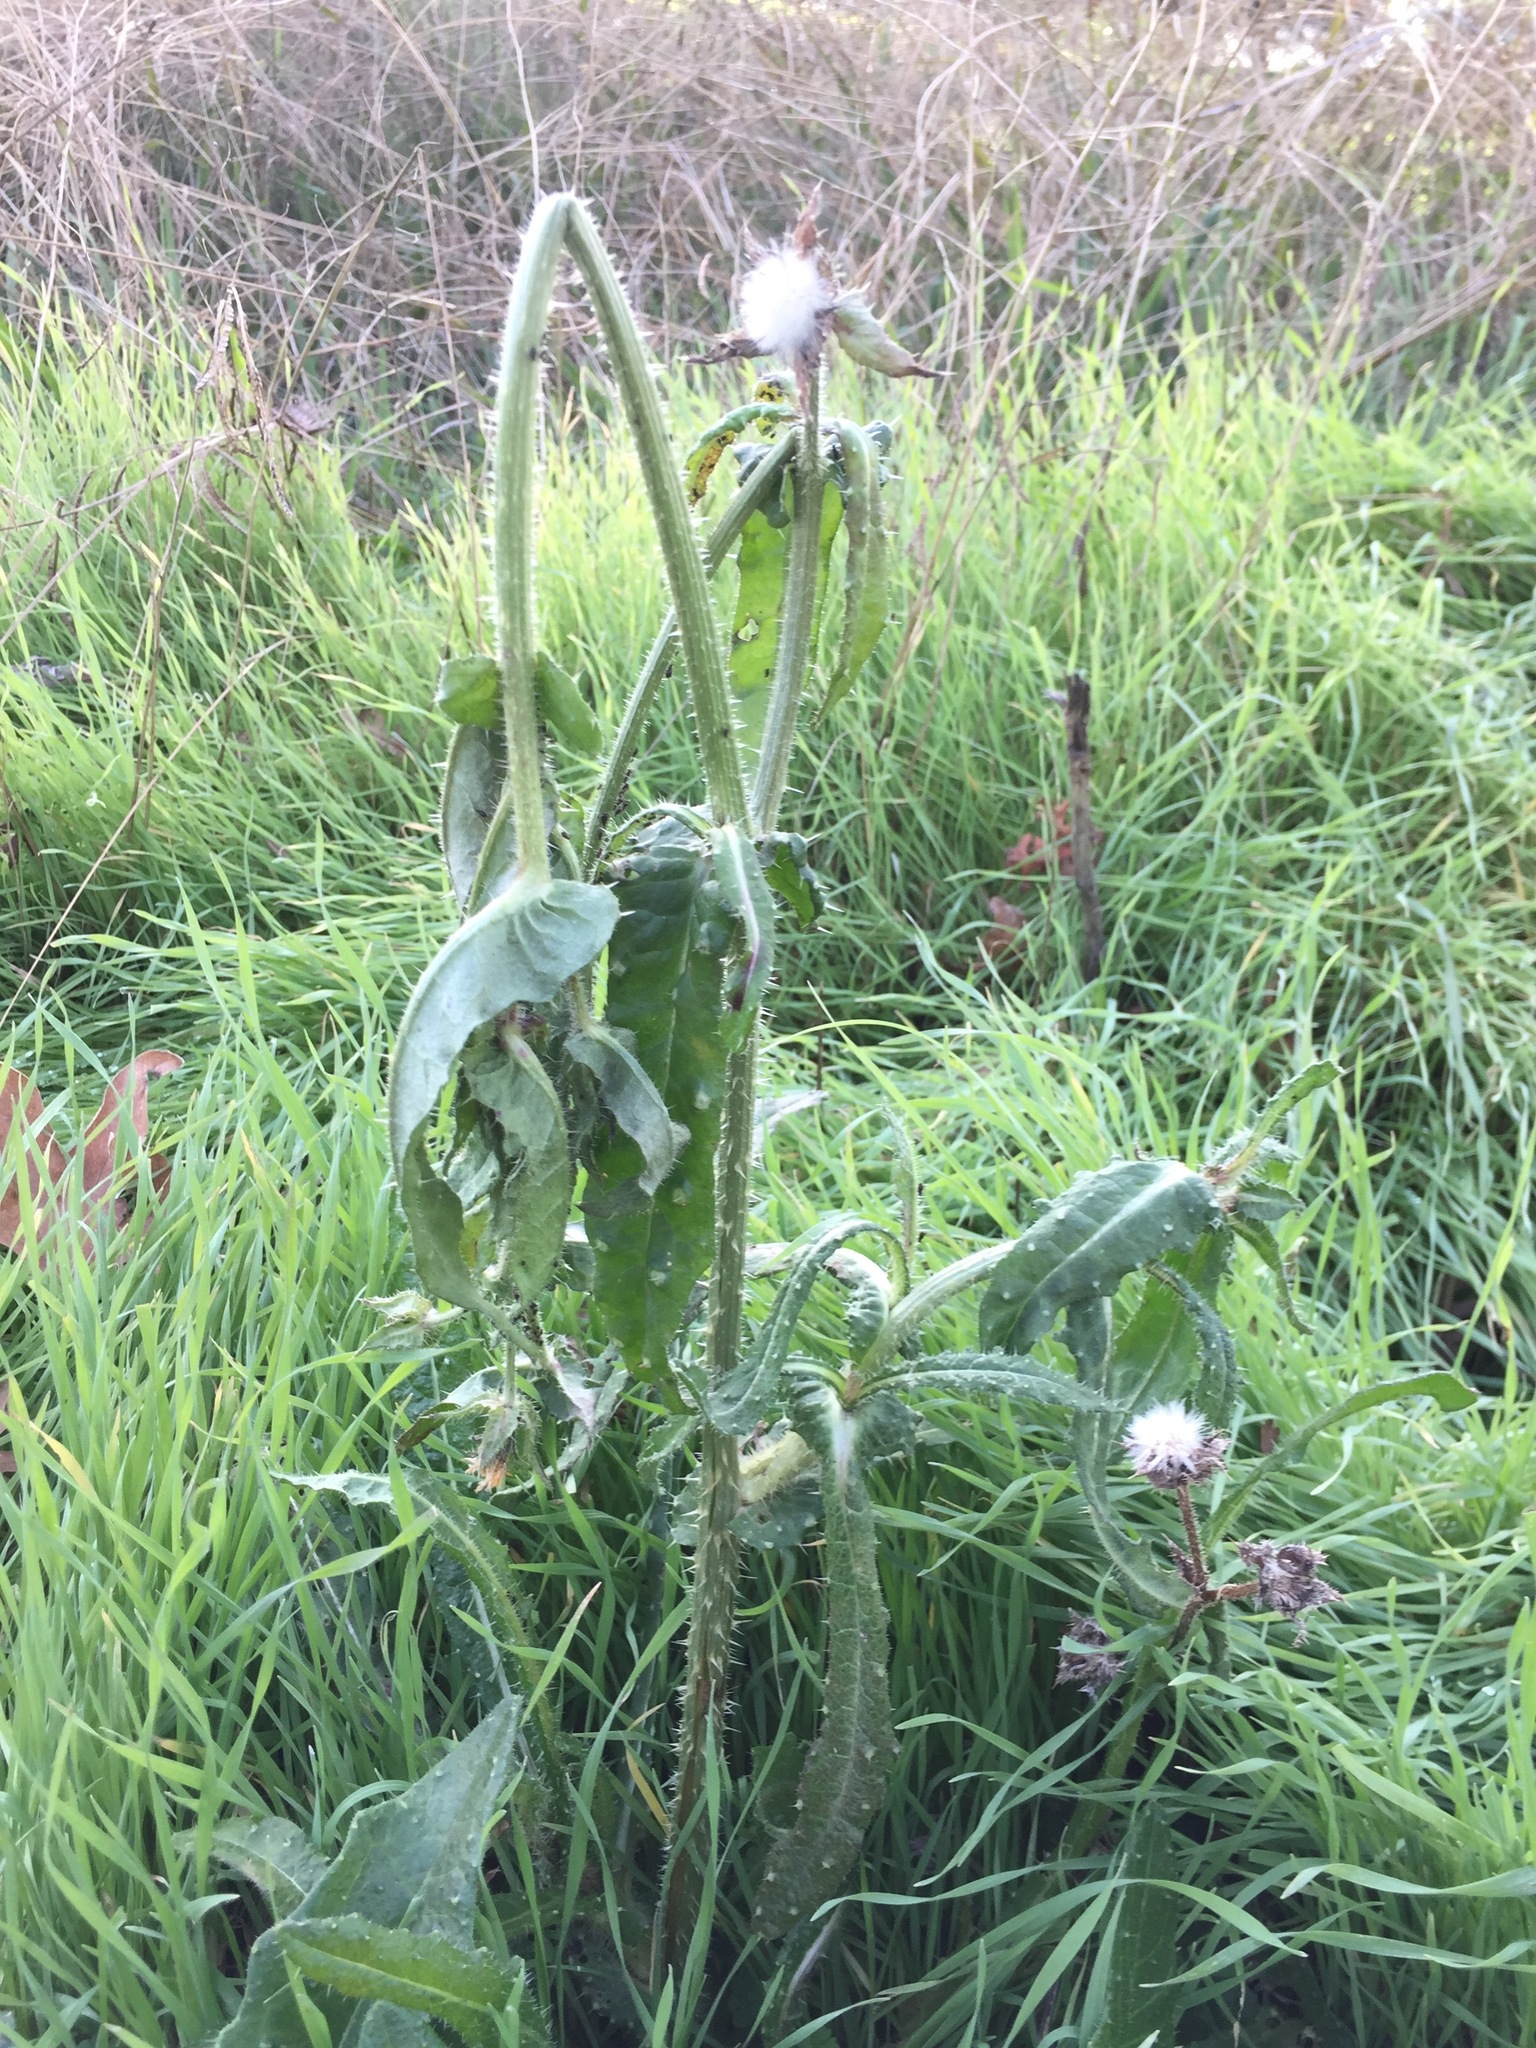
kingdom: Plantae
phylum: Tracheophyta
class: Magnoliopsida
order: Asterales
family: Asteraceae
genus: Helminthotheca
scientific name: Helminthotheca echioides
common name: Ox-tongue
